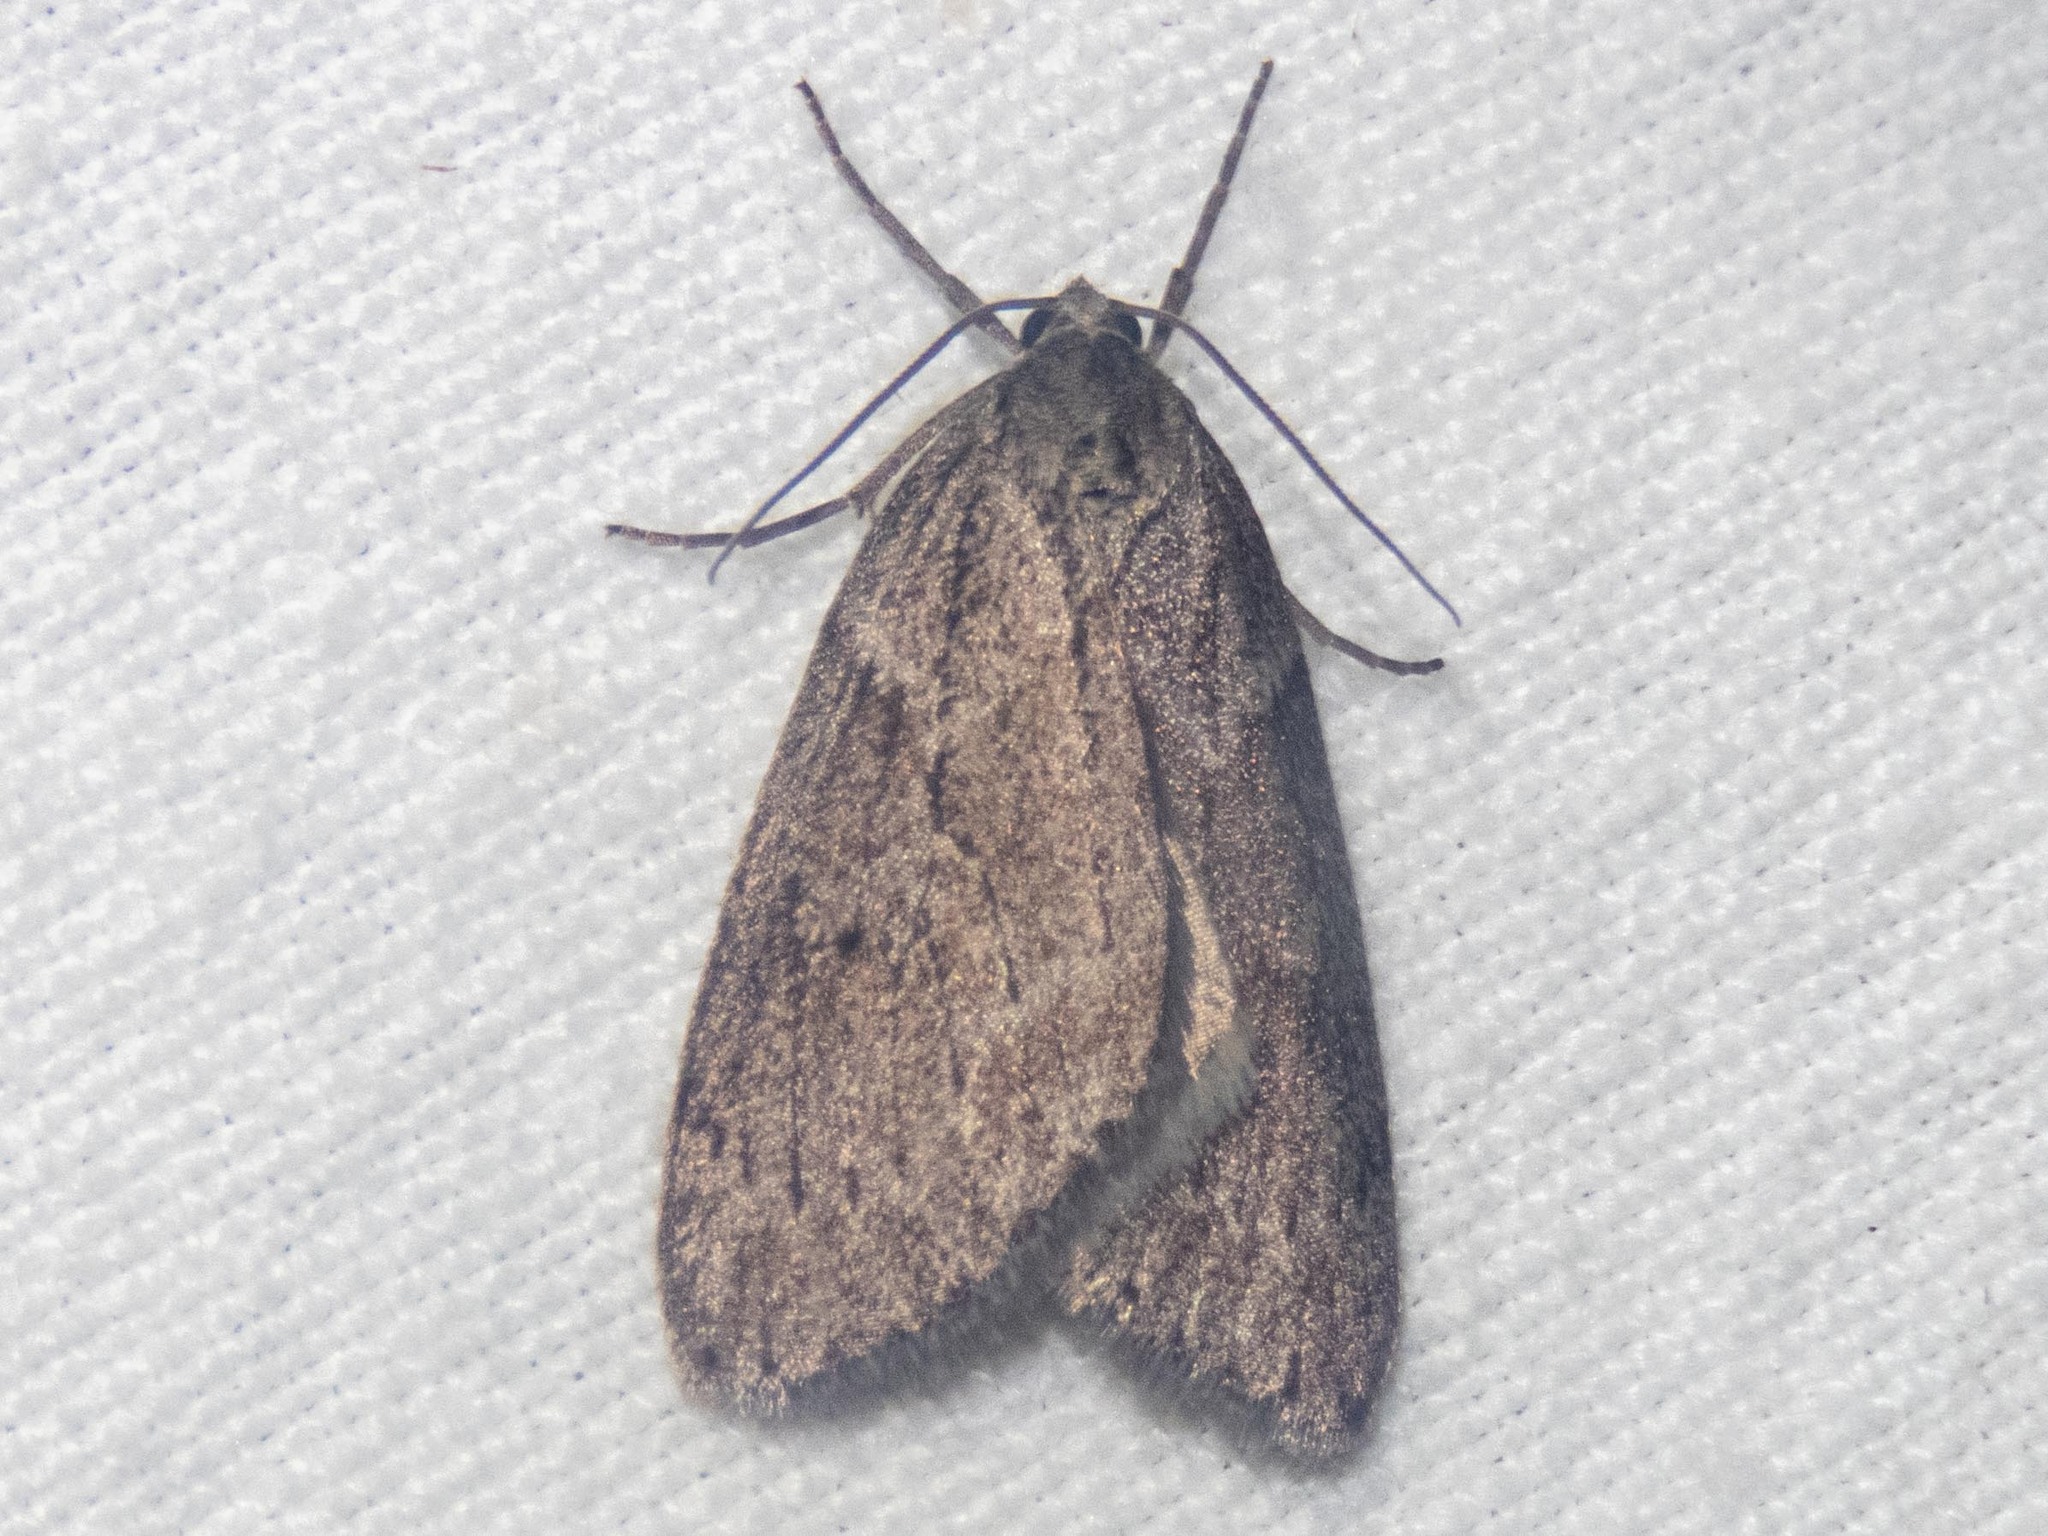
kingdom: Animalia
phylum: Arthropoda
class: Insecta
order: Lepidoptera
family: Geometridae
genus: Pachycnemia
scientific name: Pachycnemia hippocastanaria
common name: Horse chestnut
